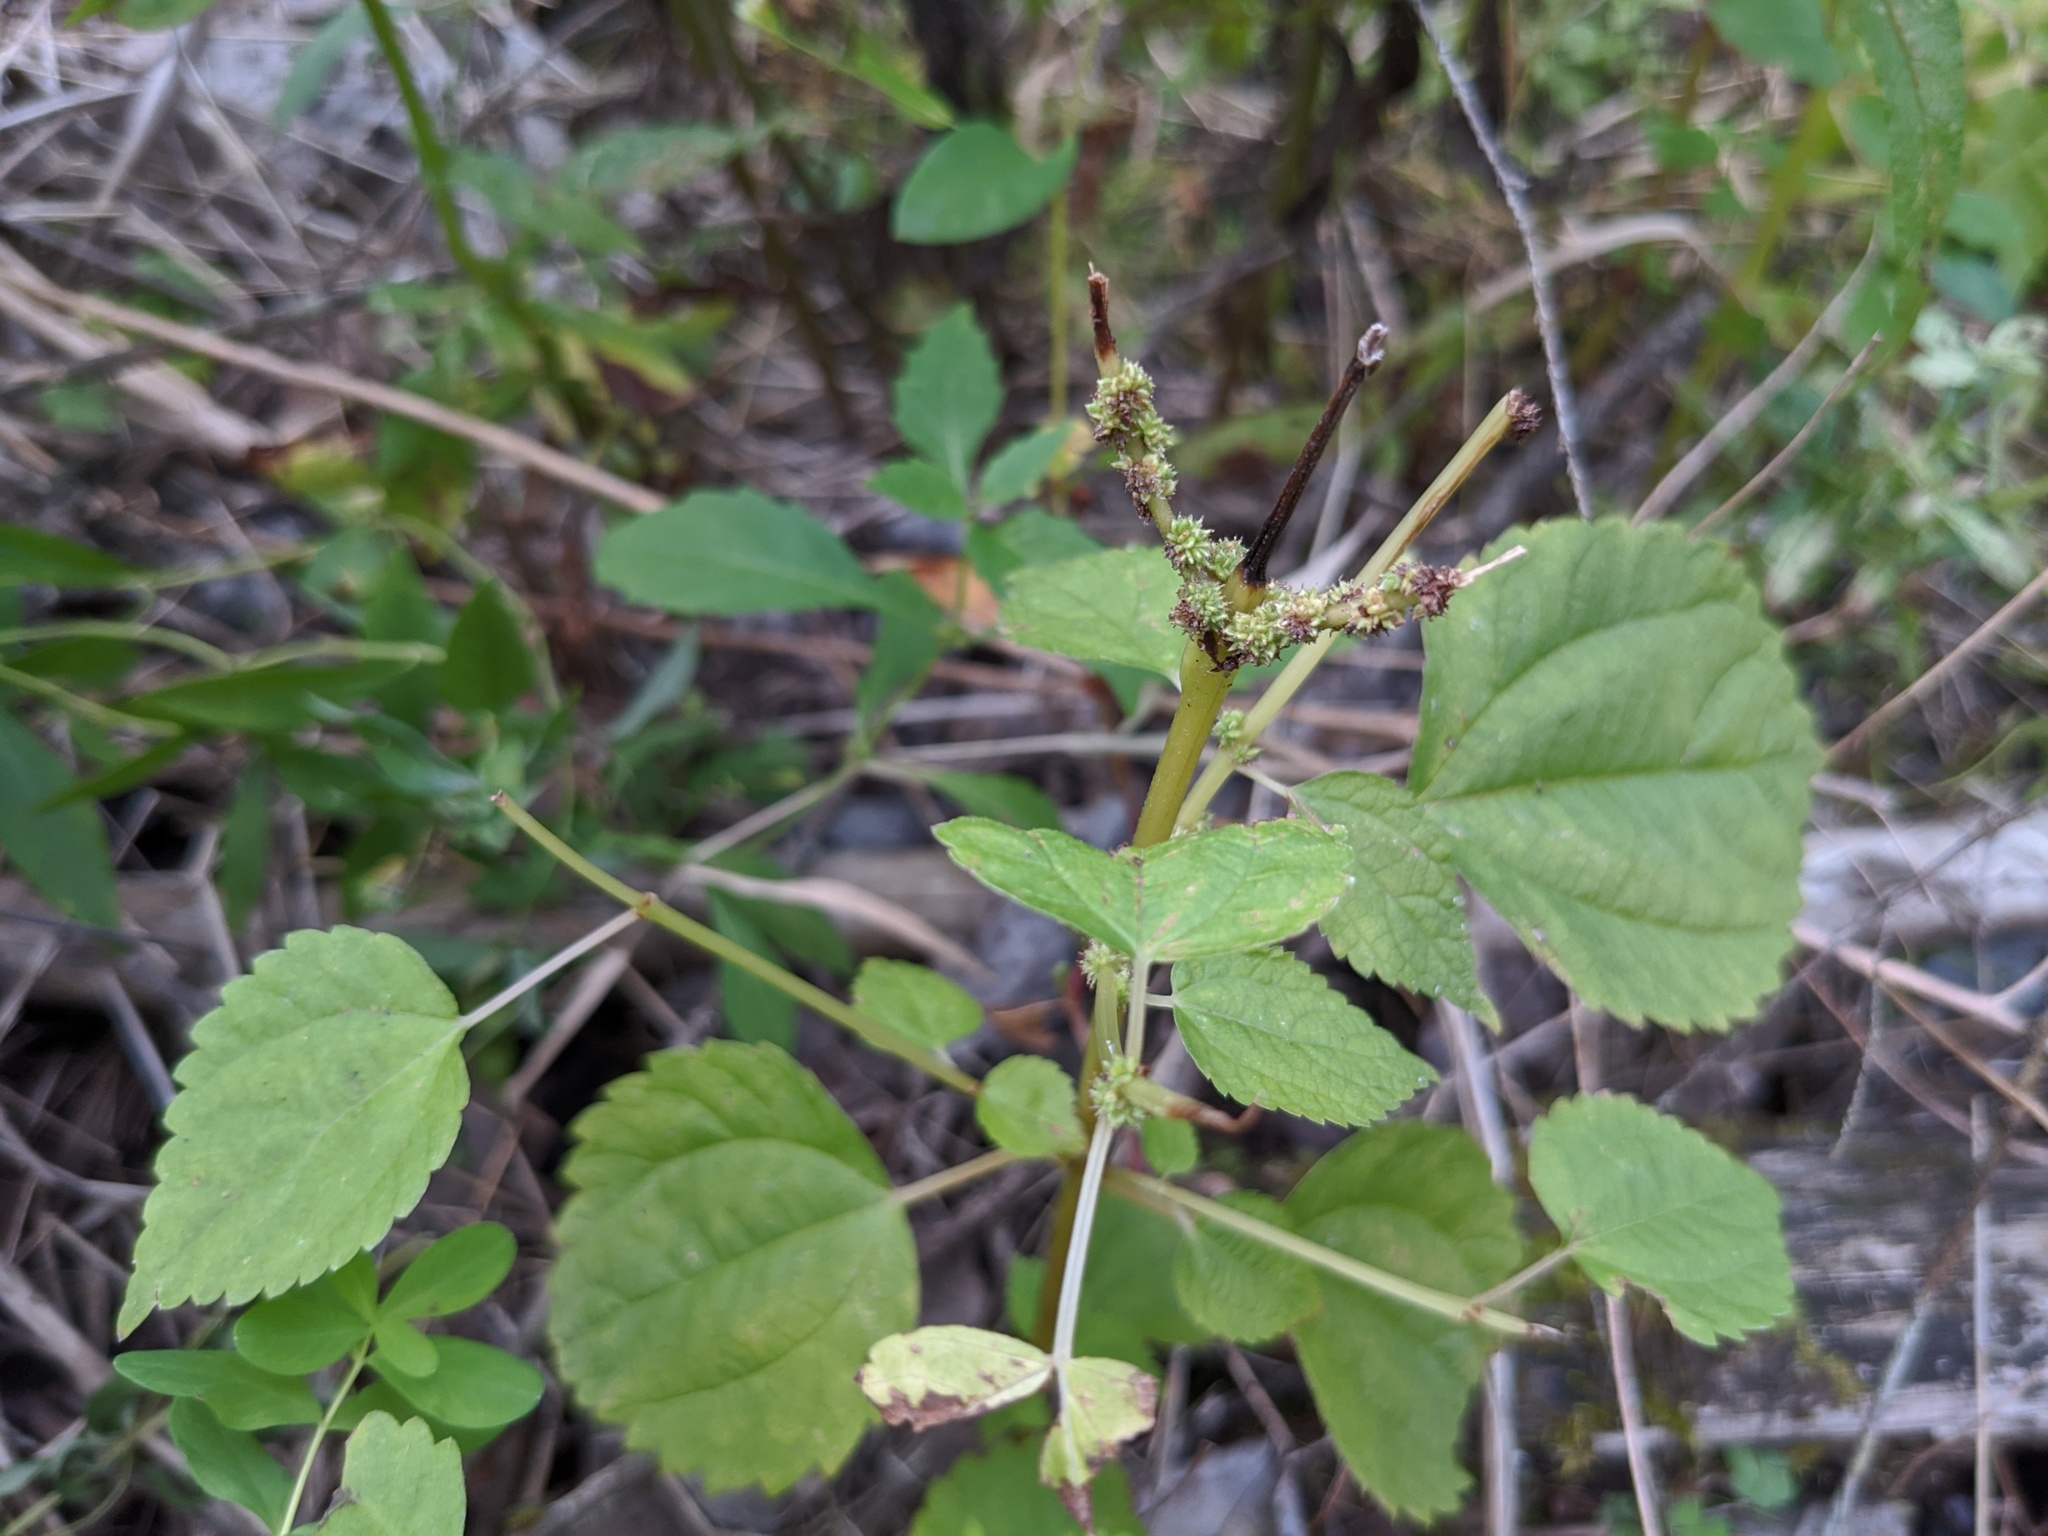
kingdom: Plantae
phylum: Tracheophyta
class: Magnoliopsida
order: Rosales
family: Urticaceae
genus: Boehmeria
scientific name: Boehmeria cylindrica
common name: Bog-hemp
